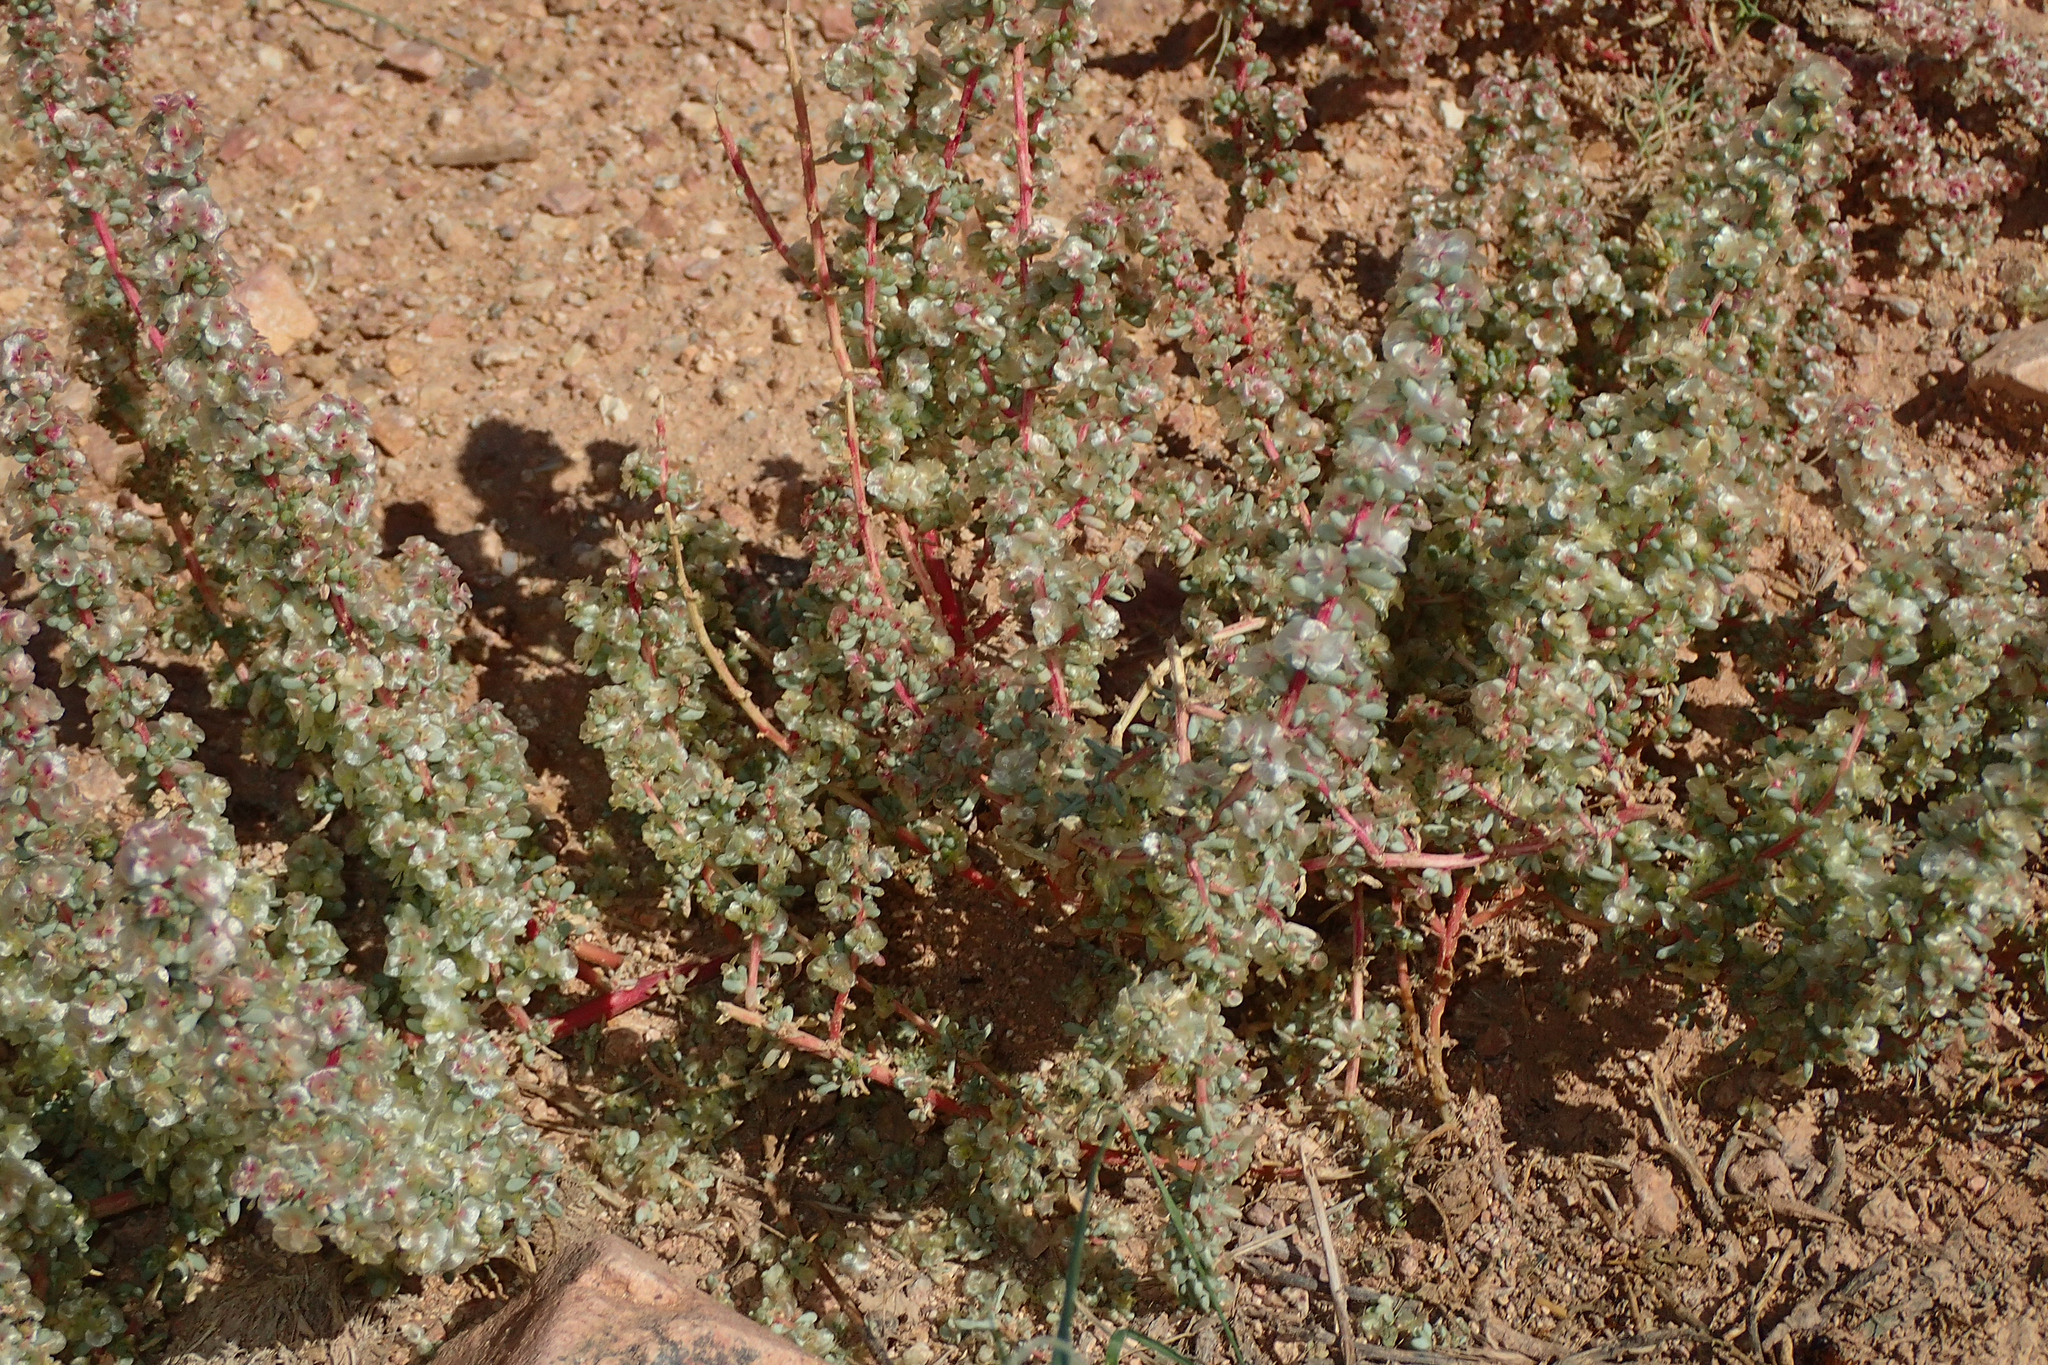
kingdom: Plantae
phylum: Tracheophyta
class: Magnoliopsida
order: Caryophyllales
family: Amaranthaceae
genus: Halogeton
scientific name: Halogeton sativus
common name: Barilla
